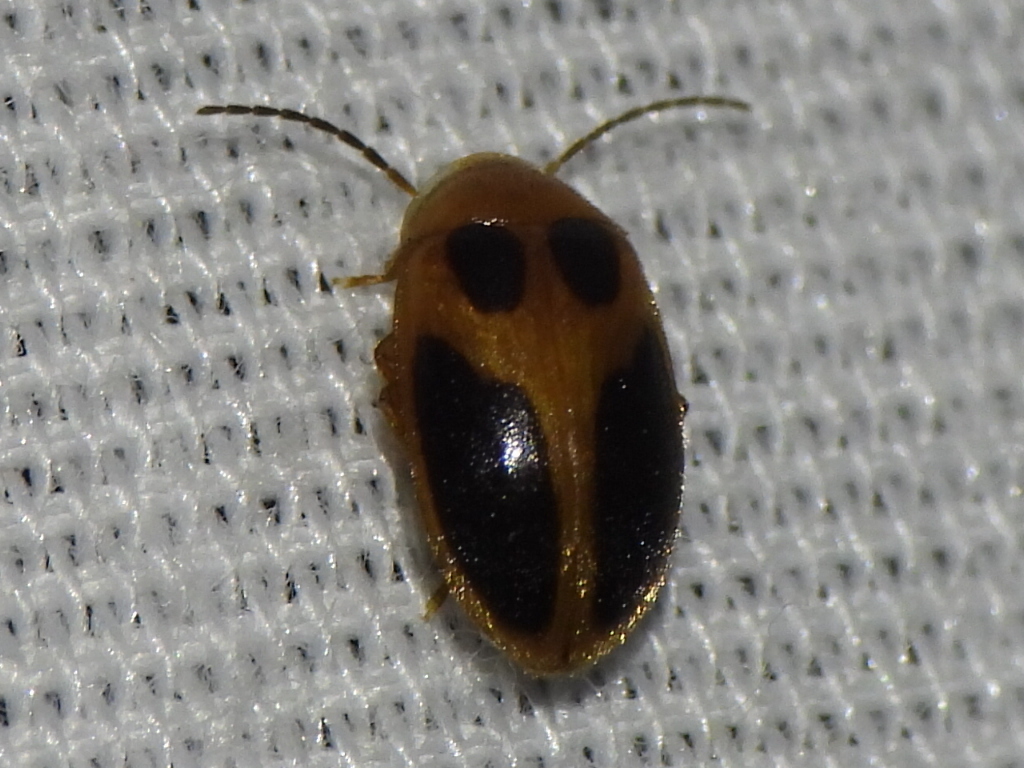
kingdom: Animalia
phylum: Arthropoda
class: Insecta
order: Coleoptera
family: Scirtidae
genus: Sacodes
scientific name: Sacodes pulchella
